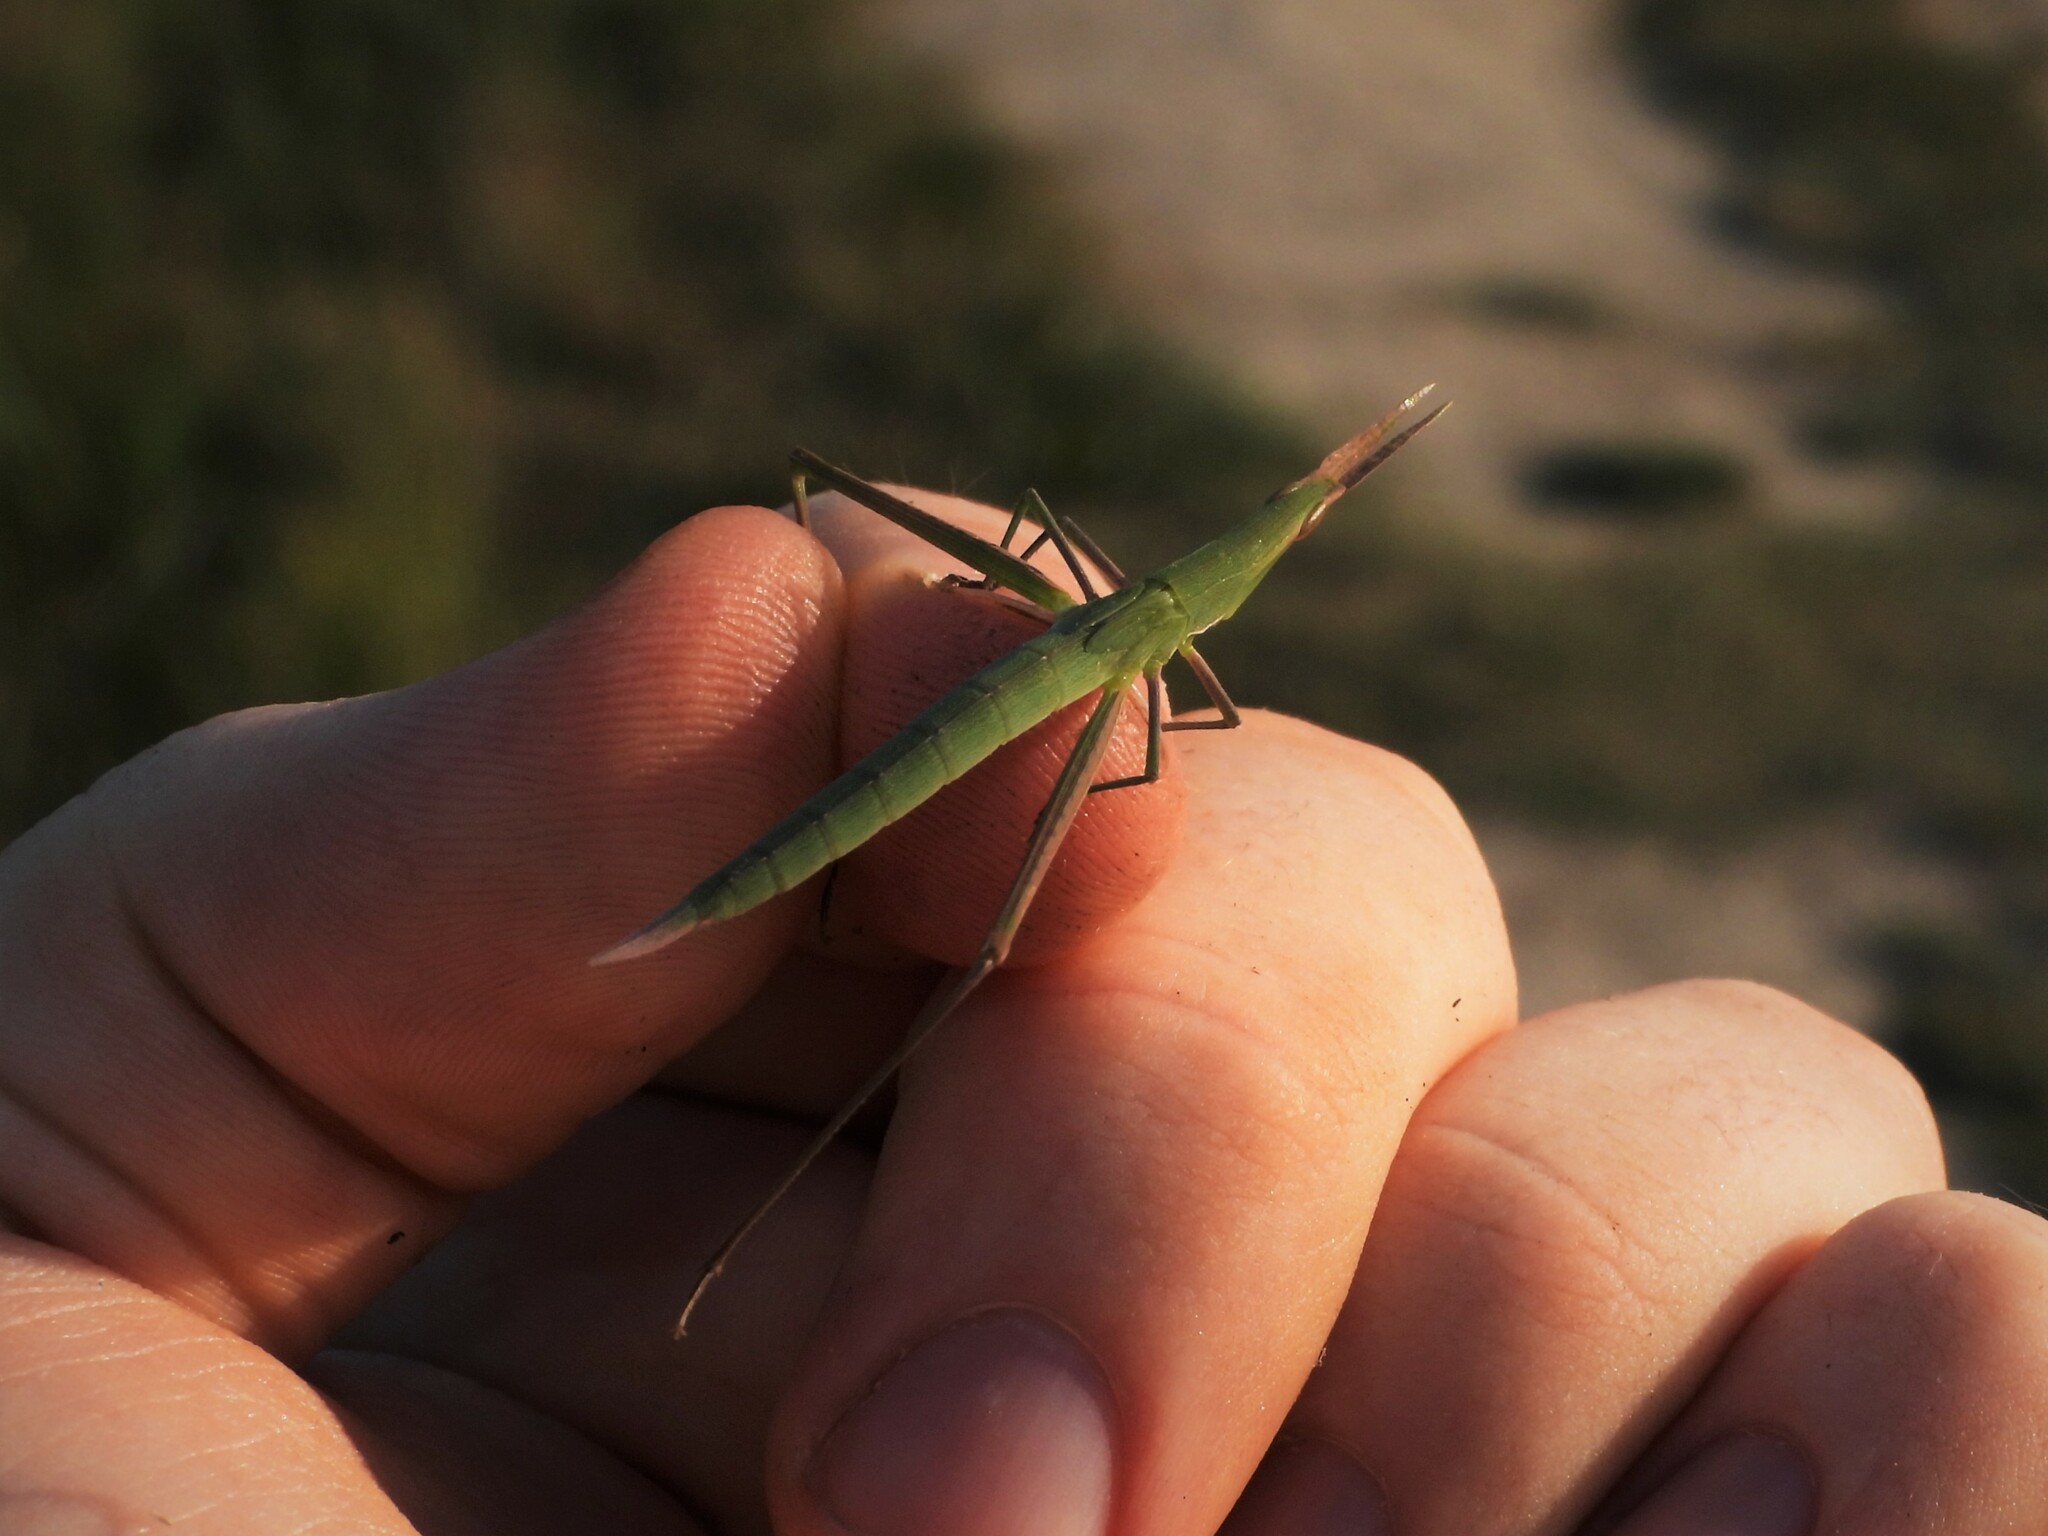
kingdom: Animalia
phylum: Arthropoda
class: Insecta
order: Orthoptera
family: Acrididae
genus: Acrida
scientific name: Acrida ungarica
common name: Common cone-headed grasshopper
